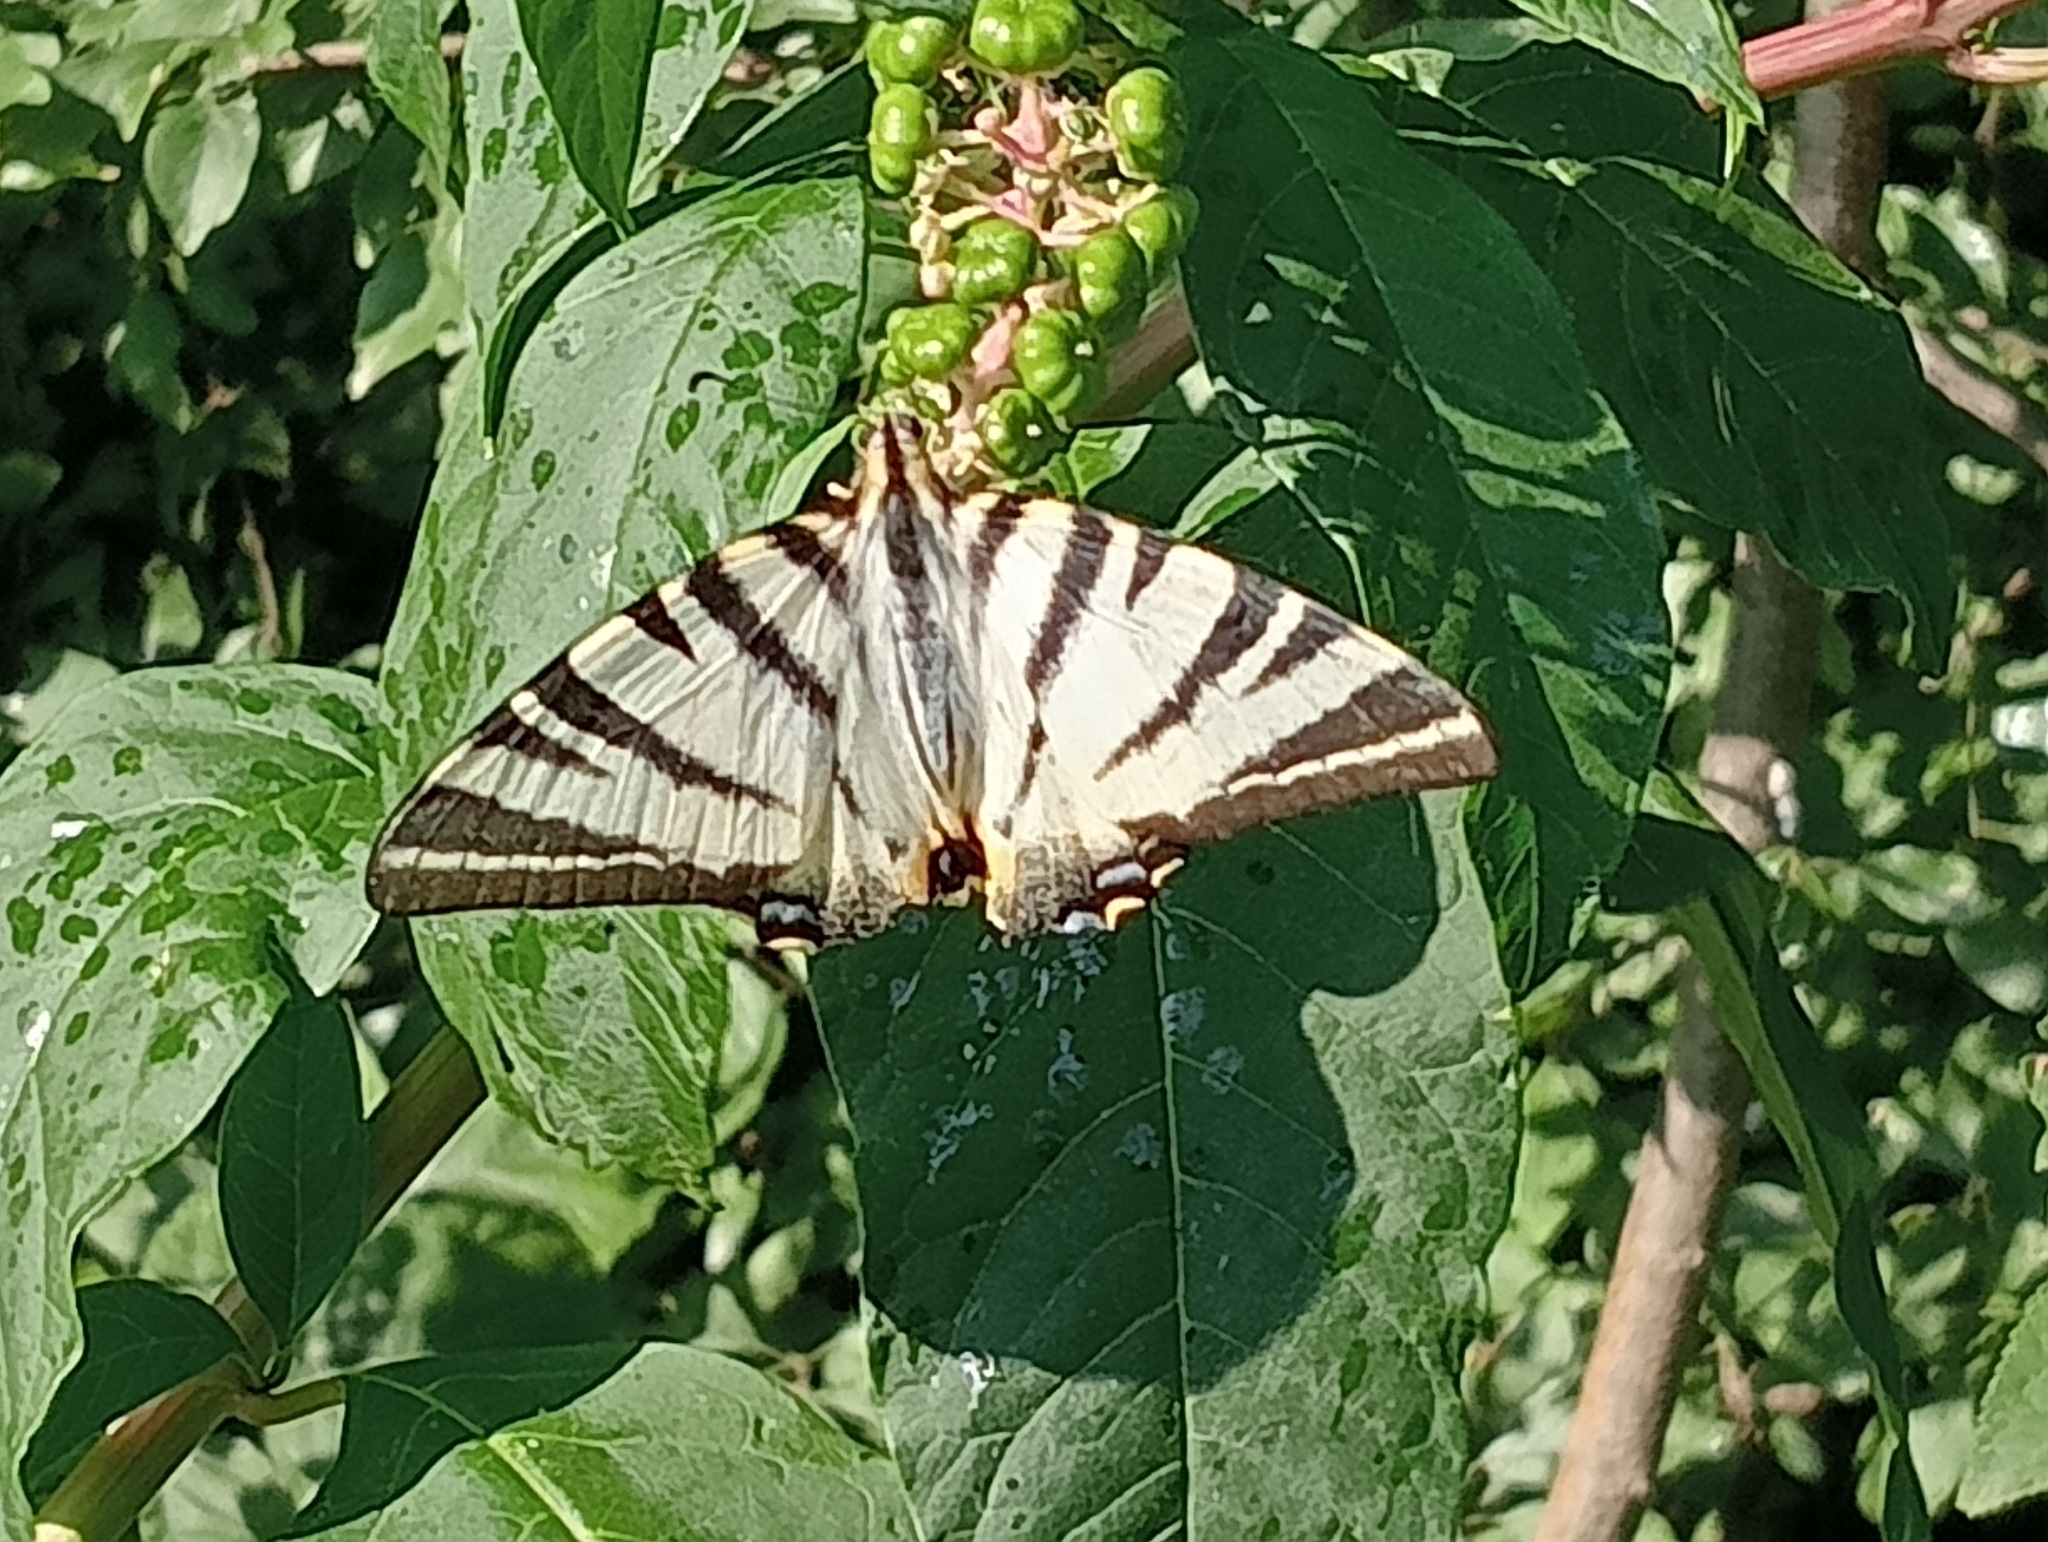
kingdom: Animalia
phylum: Arthropoda
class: Insecta
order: Lepidoptera
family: Papilionidae
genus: Iphiclides
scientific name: Iphiclides podalirius
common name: Scarce swallowtail
